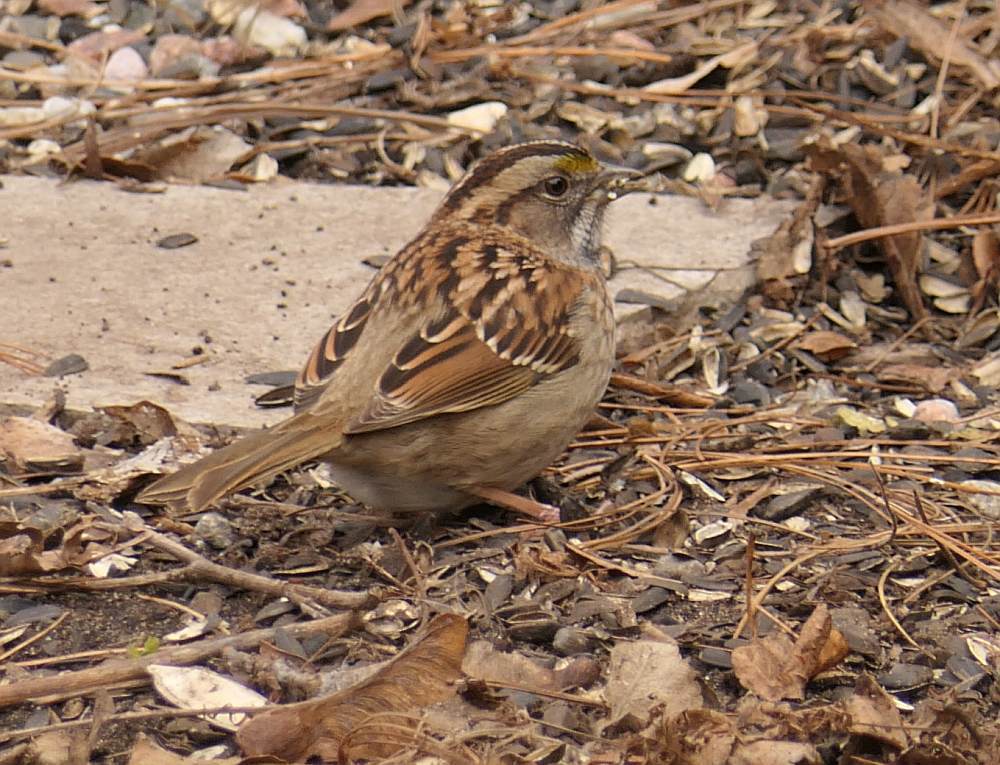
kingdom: Animalia
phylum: Chordata
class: Aves
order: Passeriformes
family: Passerellidae
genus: Zonotrichia
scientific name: Zonotrichia albicollis
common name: White-throated sparrow
